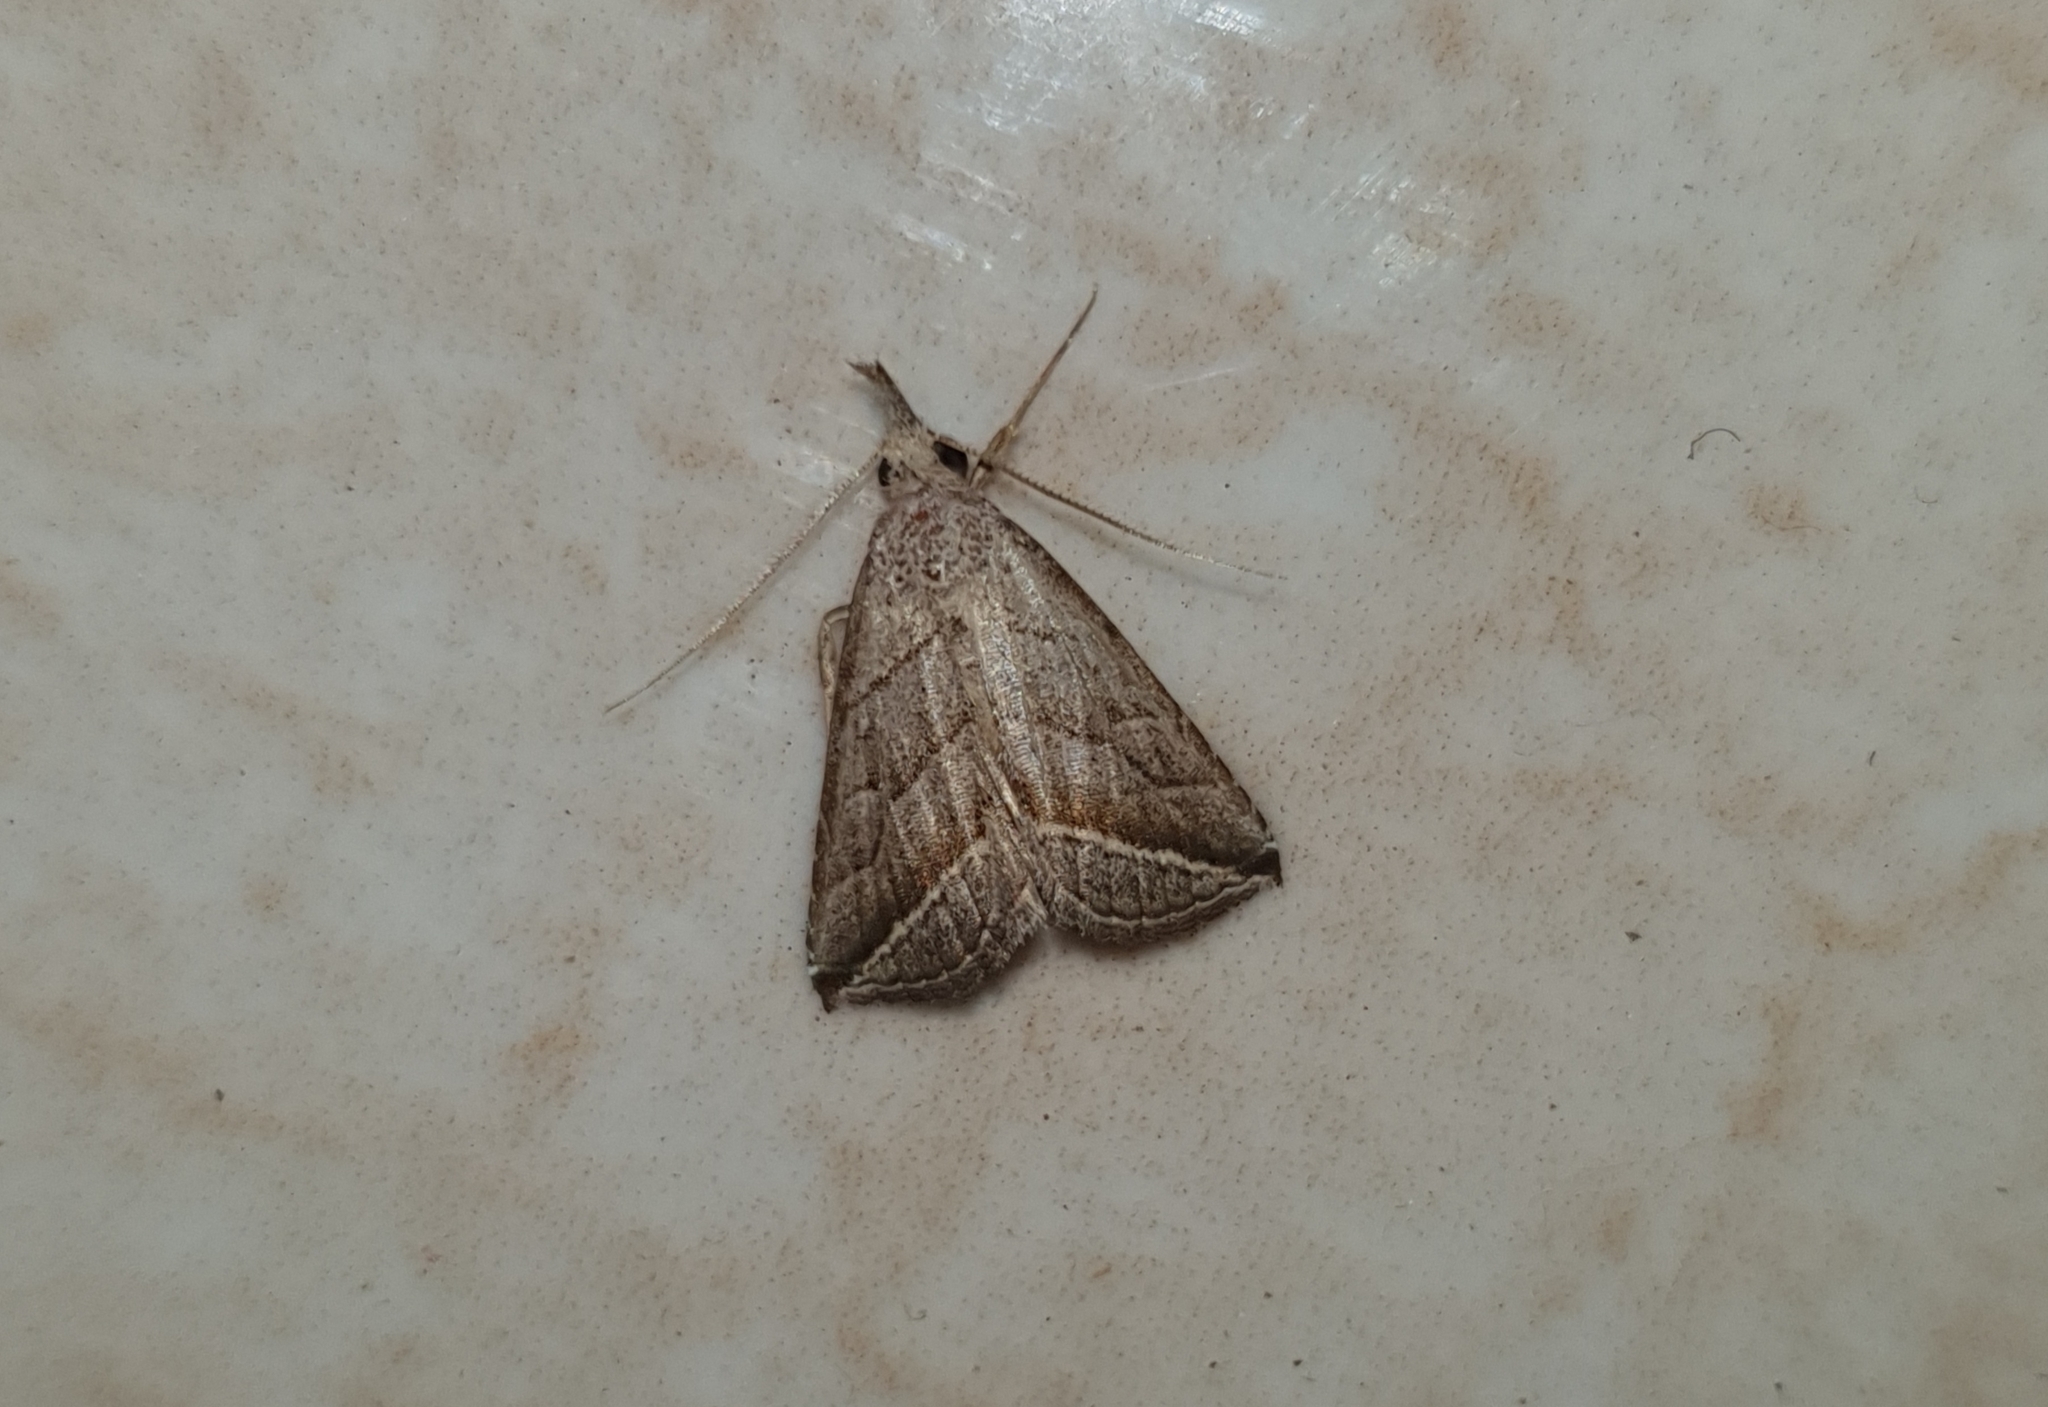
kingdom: Animalia
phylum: Arthropoda
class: Insecta
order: Lepidoptera
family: Erebidae
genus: Britha
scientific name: Britha biguttata
